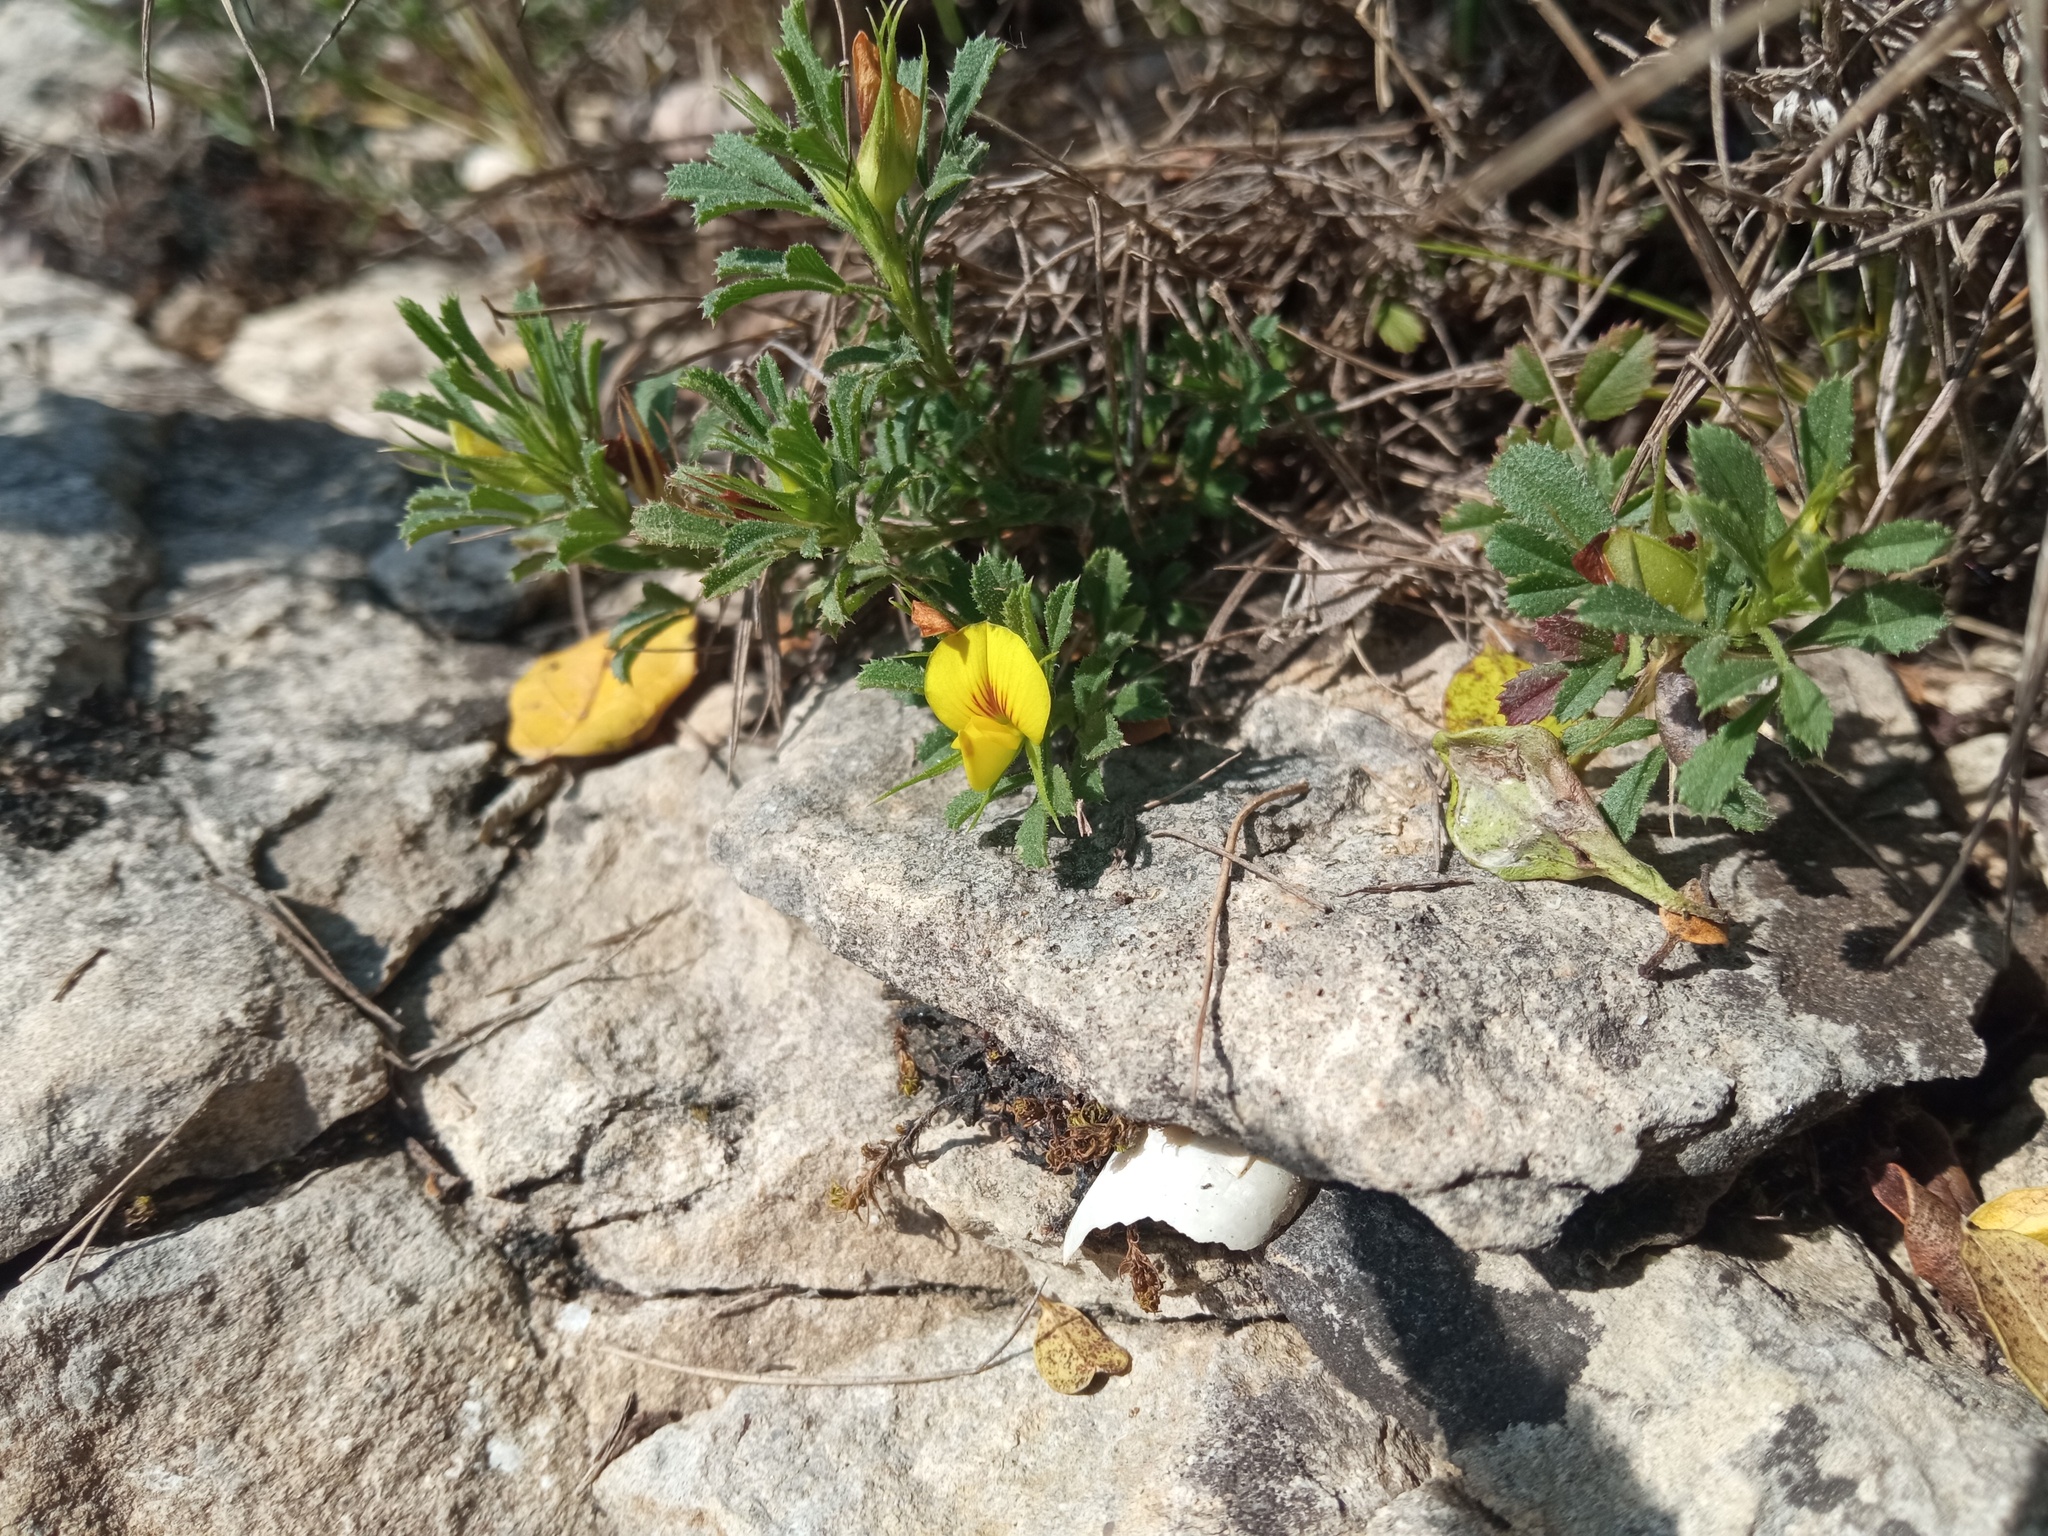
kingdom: Plantae
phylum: Tracheophyta
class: Magnoliopsida
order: Fabales
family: Fabaceae
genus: Ononis
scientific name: Ononis minutissima
